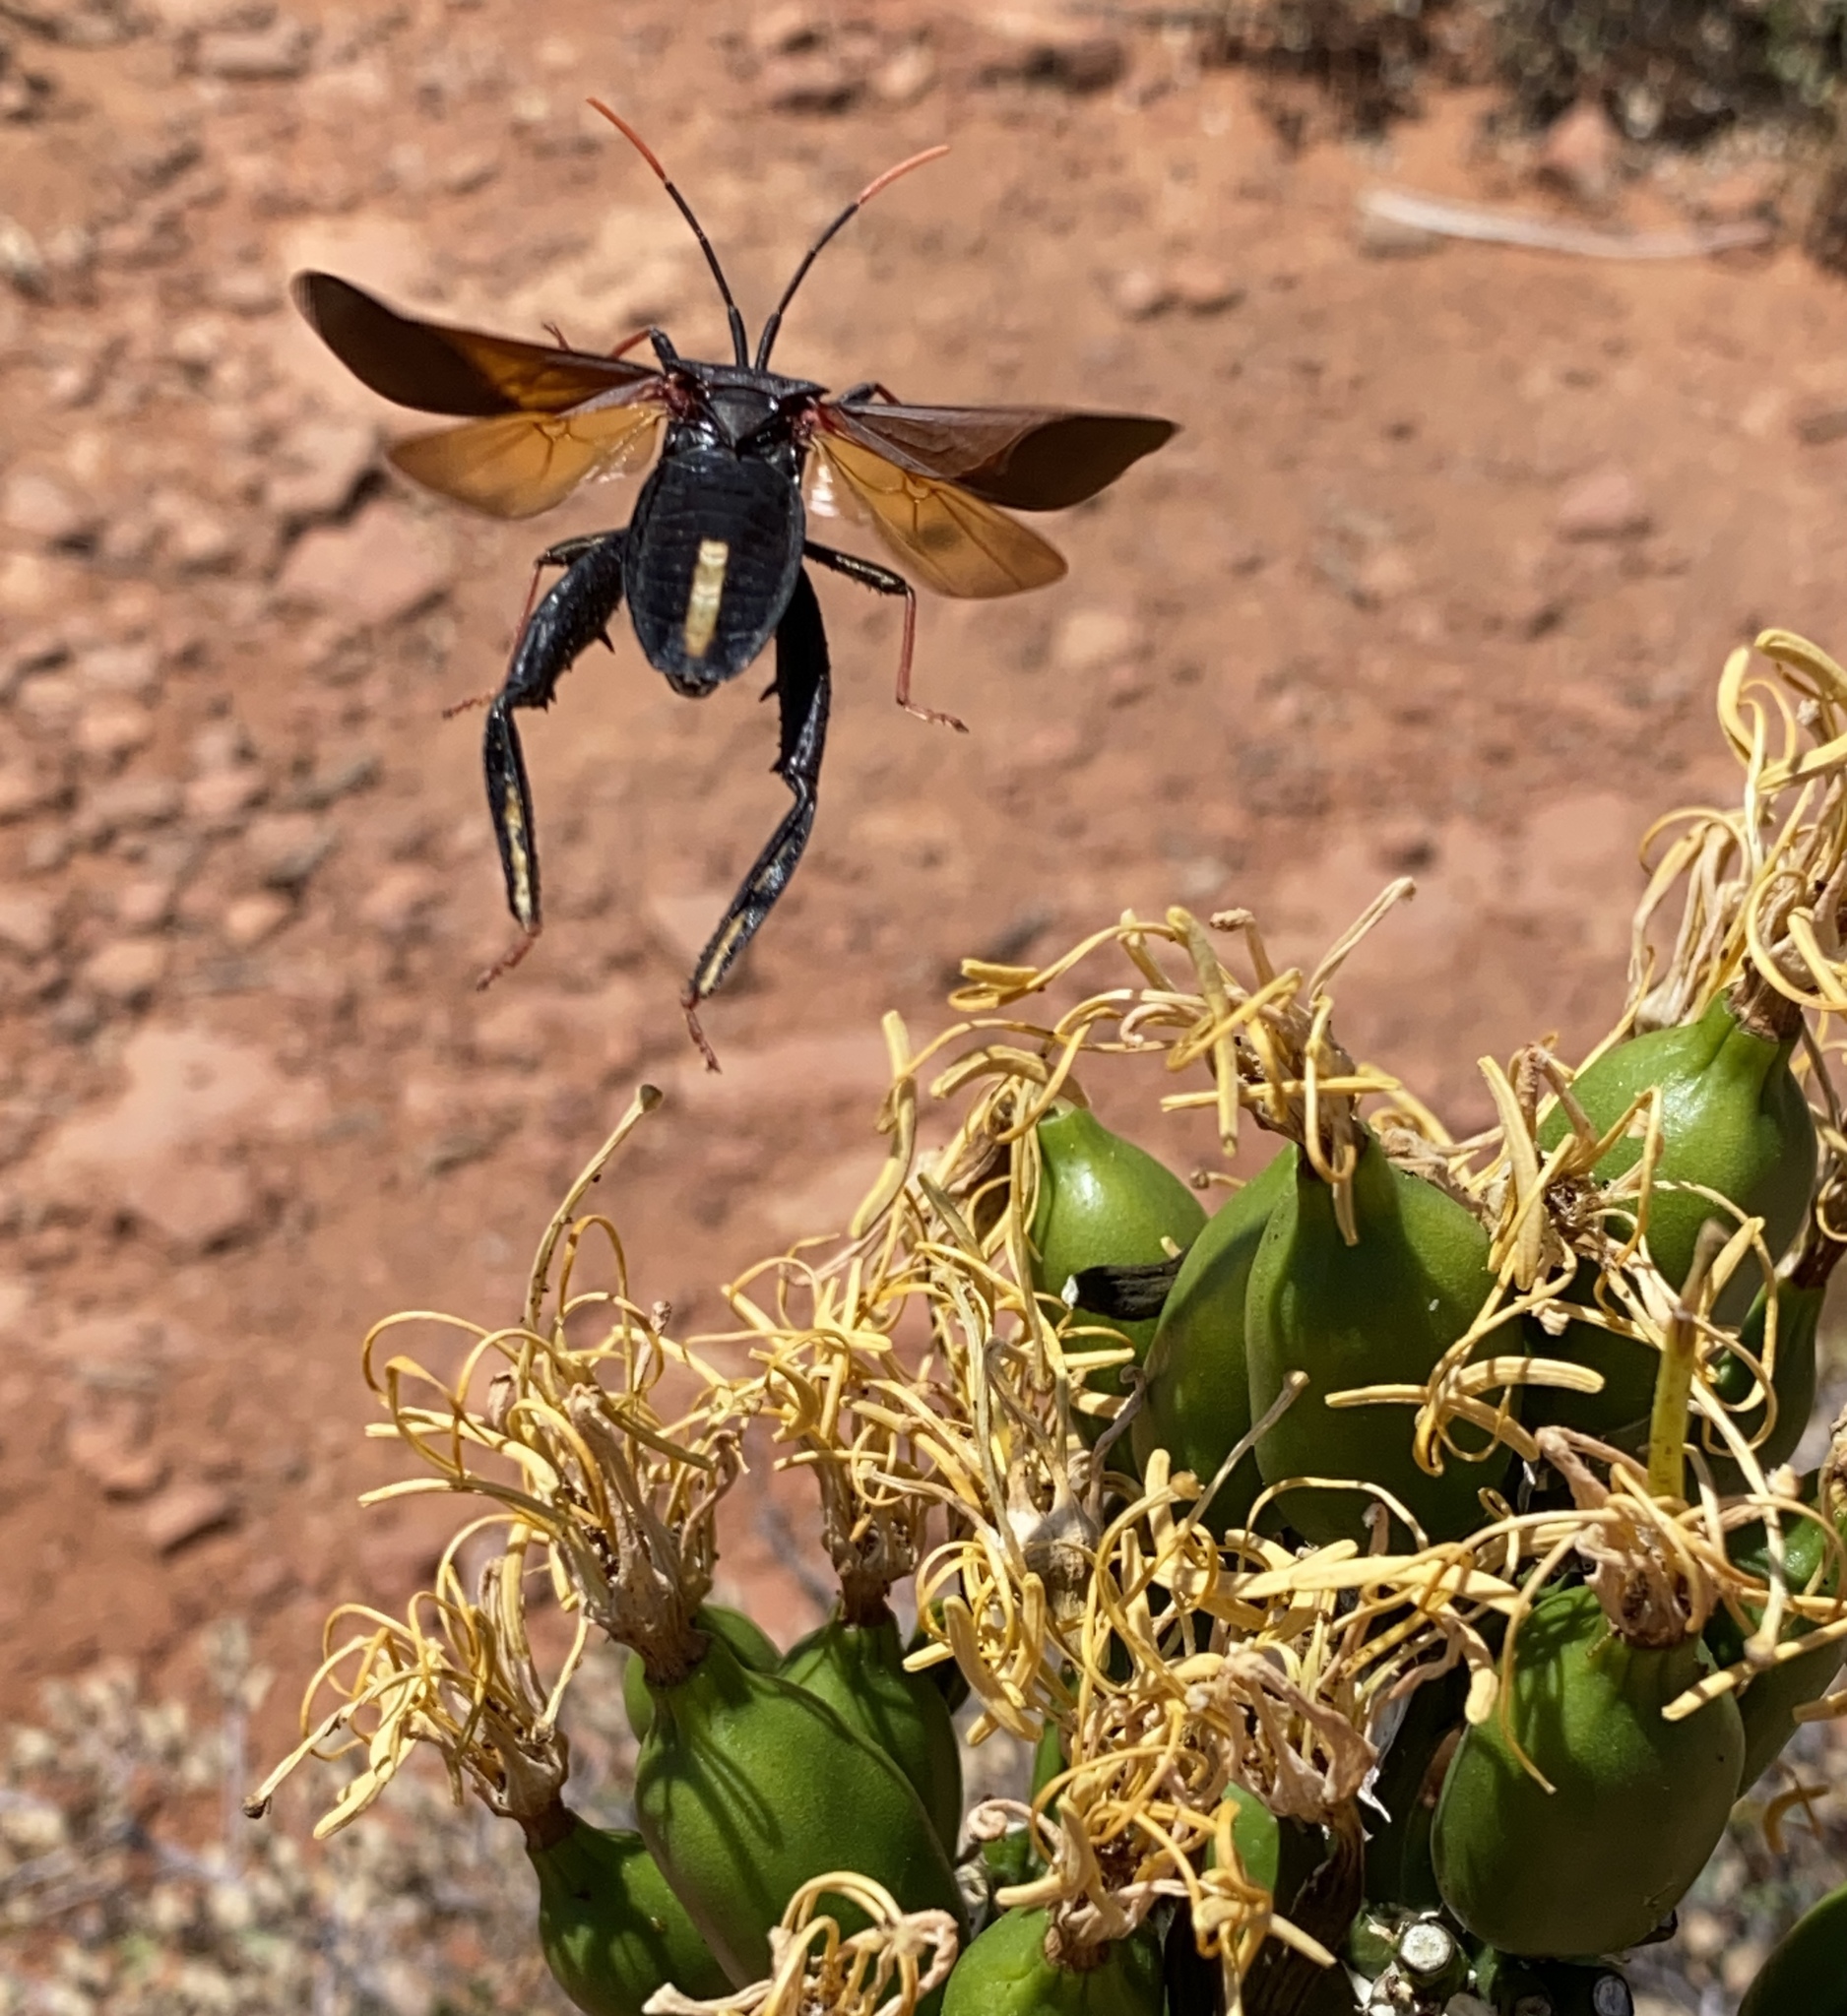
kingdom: Animalia
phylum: Arthropoda
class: Insecta
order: Hemiptera
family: Coreidae
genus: Acanthocephala
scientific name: Acanthocephala thomasi
